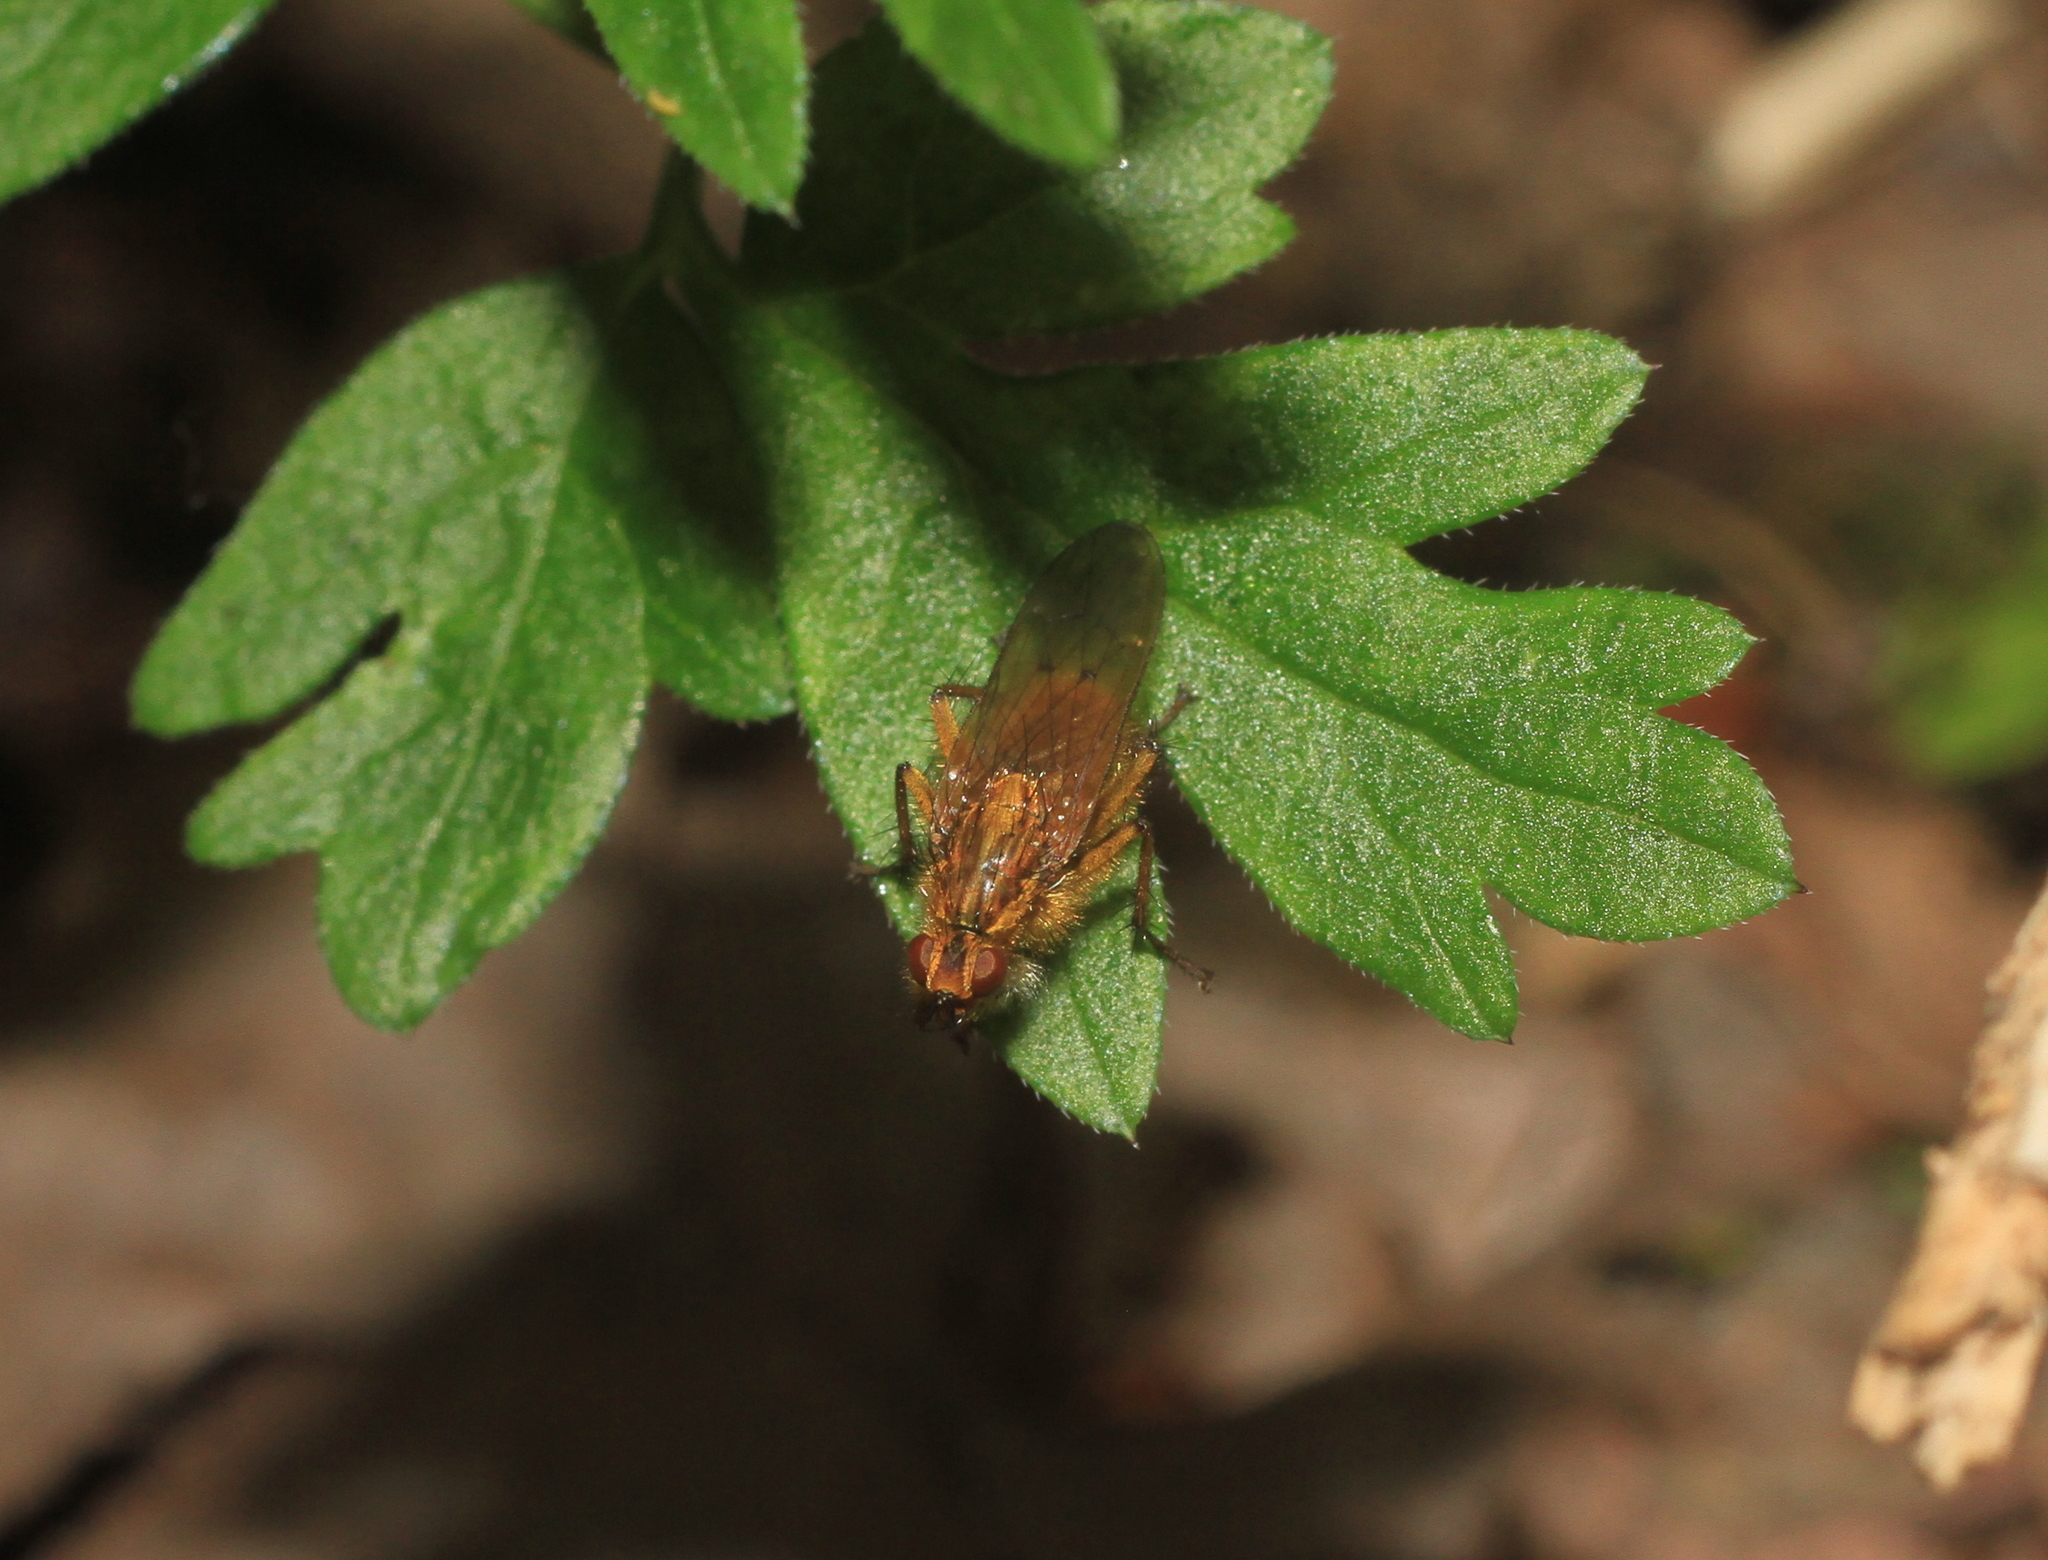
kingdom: Animalia
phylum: Arthropoda
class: Insecta
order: Diptera
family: Scathophagidae
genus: Scathophaga
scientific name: Scathophaga stercoraria
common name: Yellow dung fly
